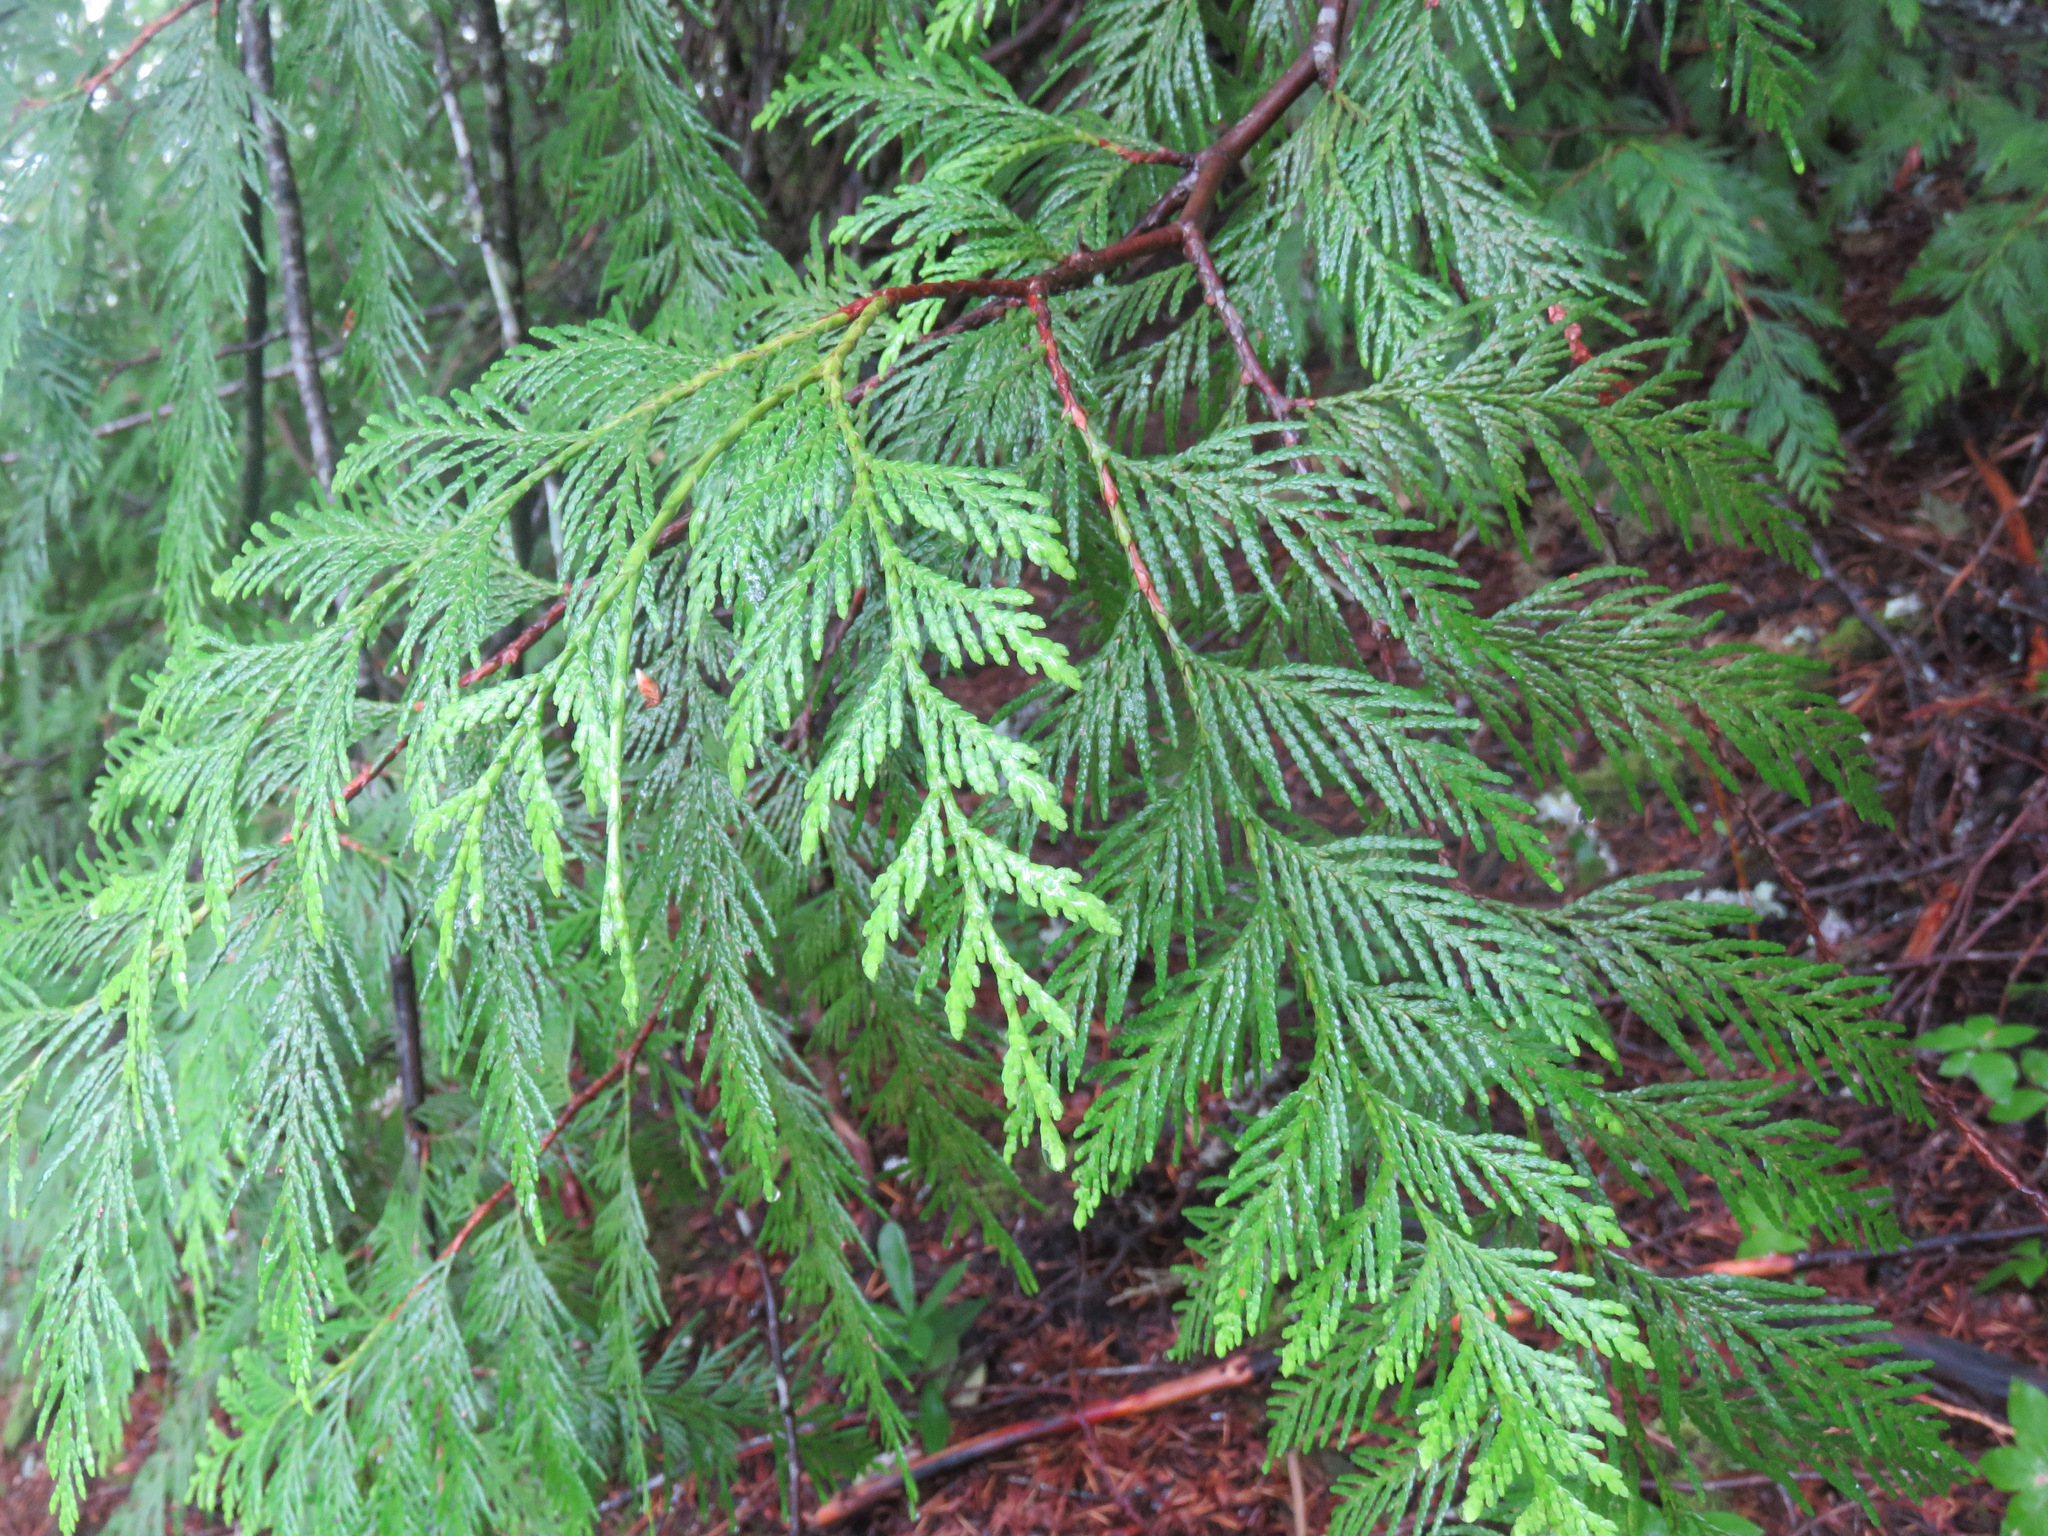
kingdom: Plantae
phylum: Tracheophyta
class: Pinopsida
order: Pinales
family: Cupressaceae
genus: Thuja
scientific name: Thuja plicata
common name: Western red-cedar
